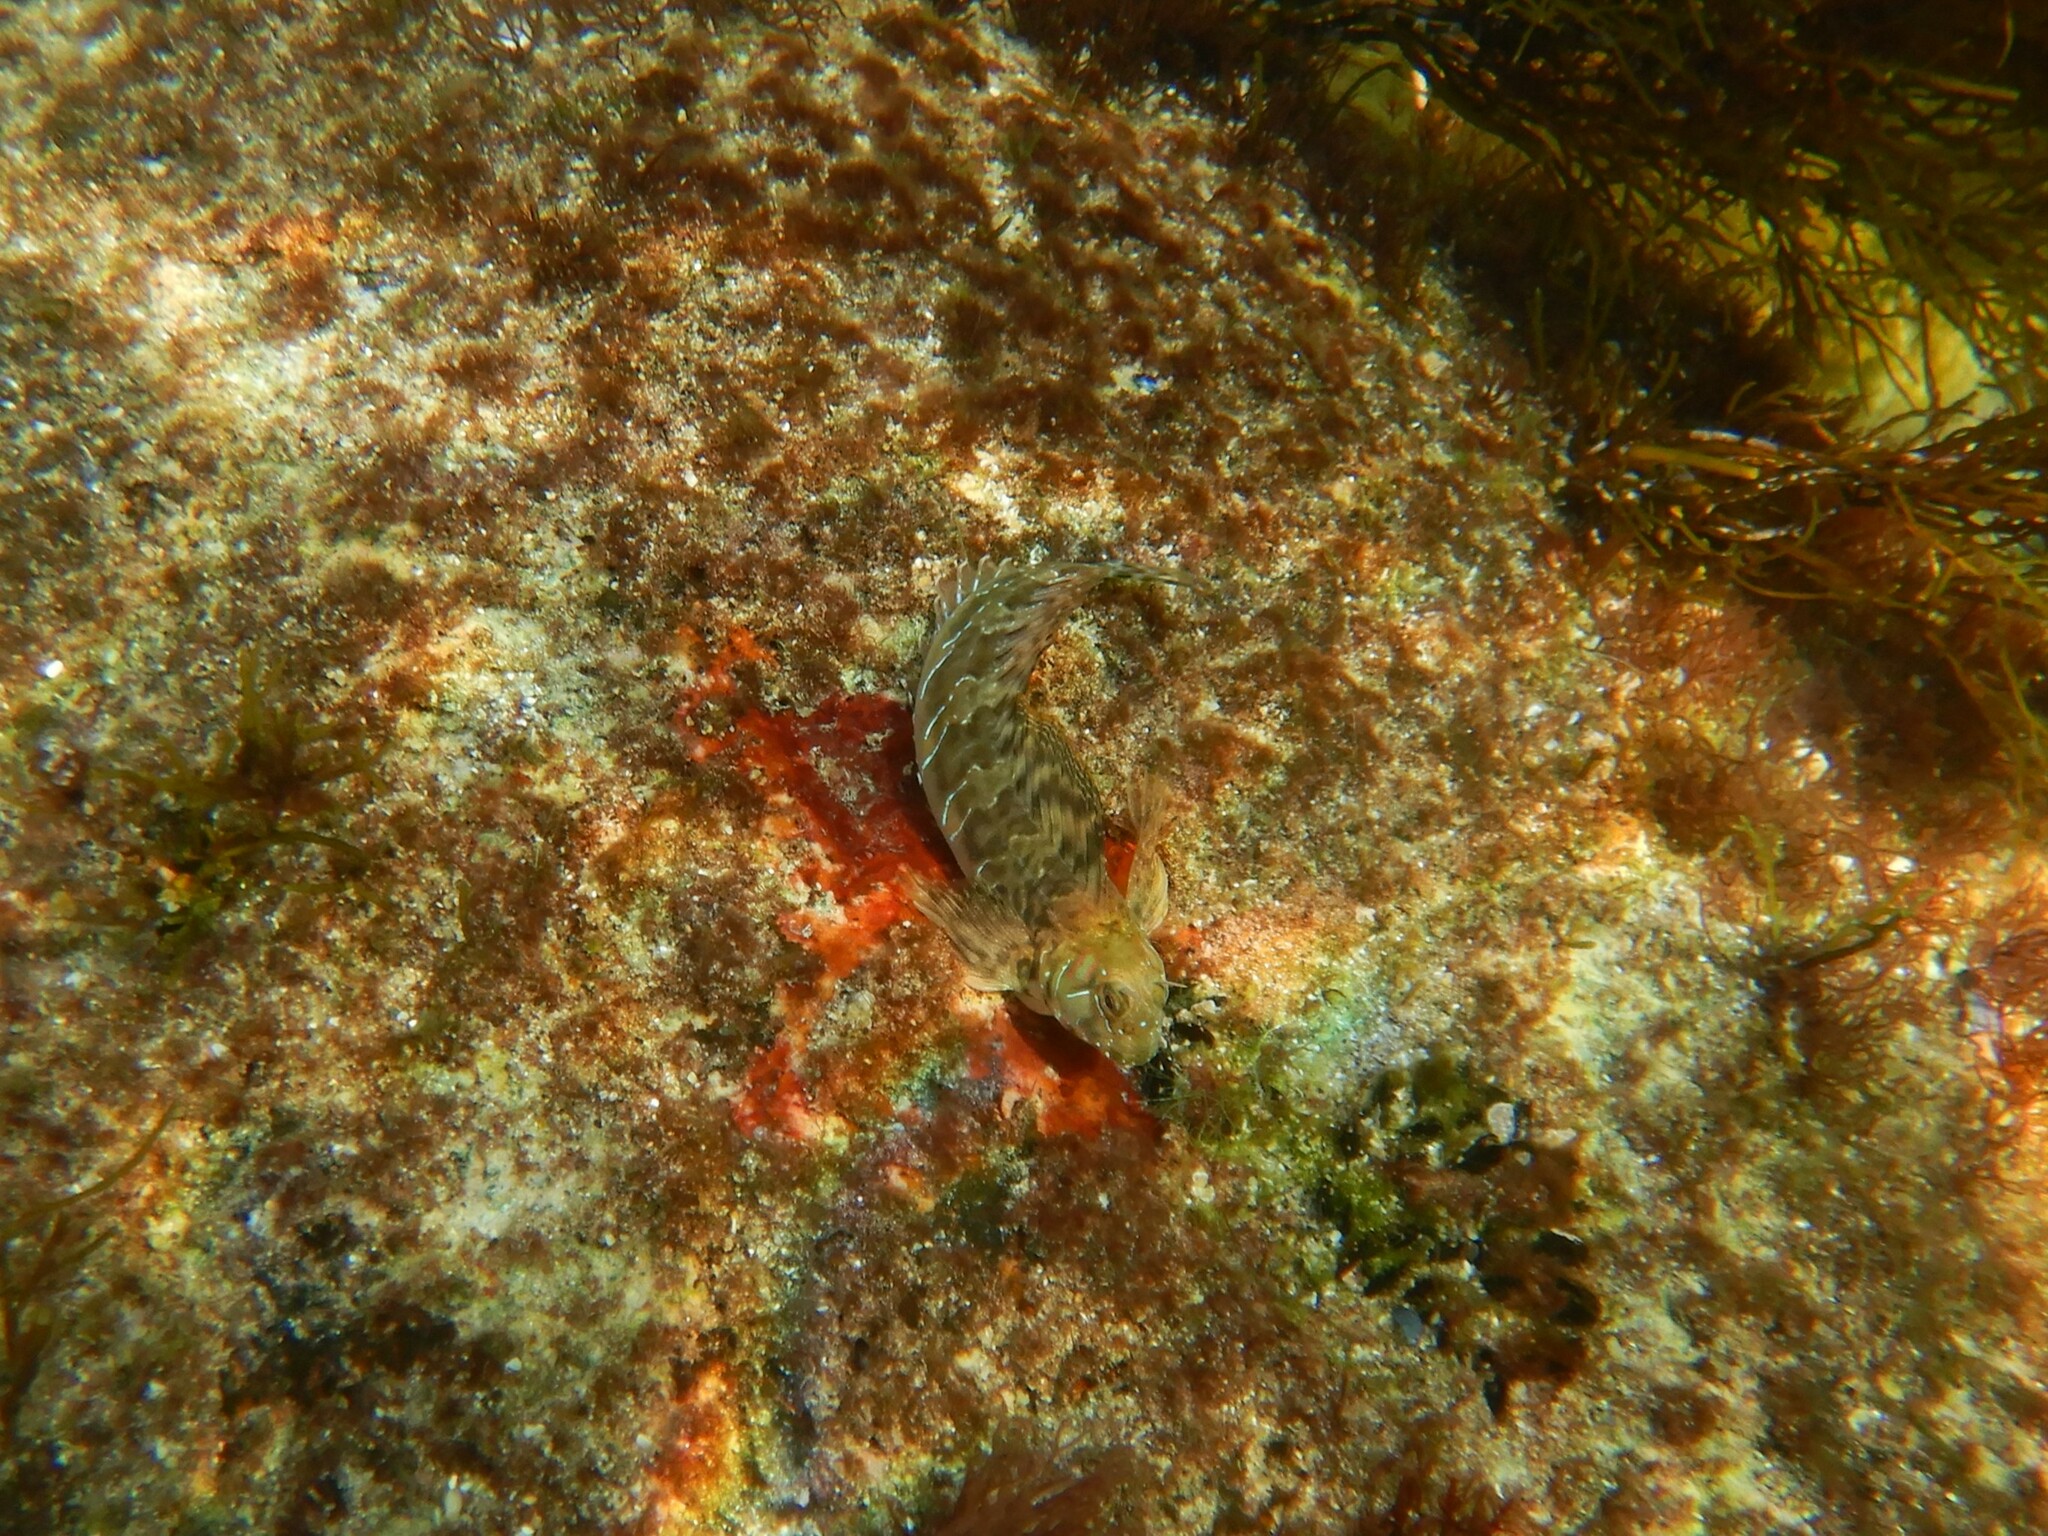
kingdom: Animalia
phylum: Chordata
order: Perciformes
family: Blenniidae
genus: Aidablennius
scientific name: Aidablennius sphynx
